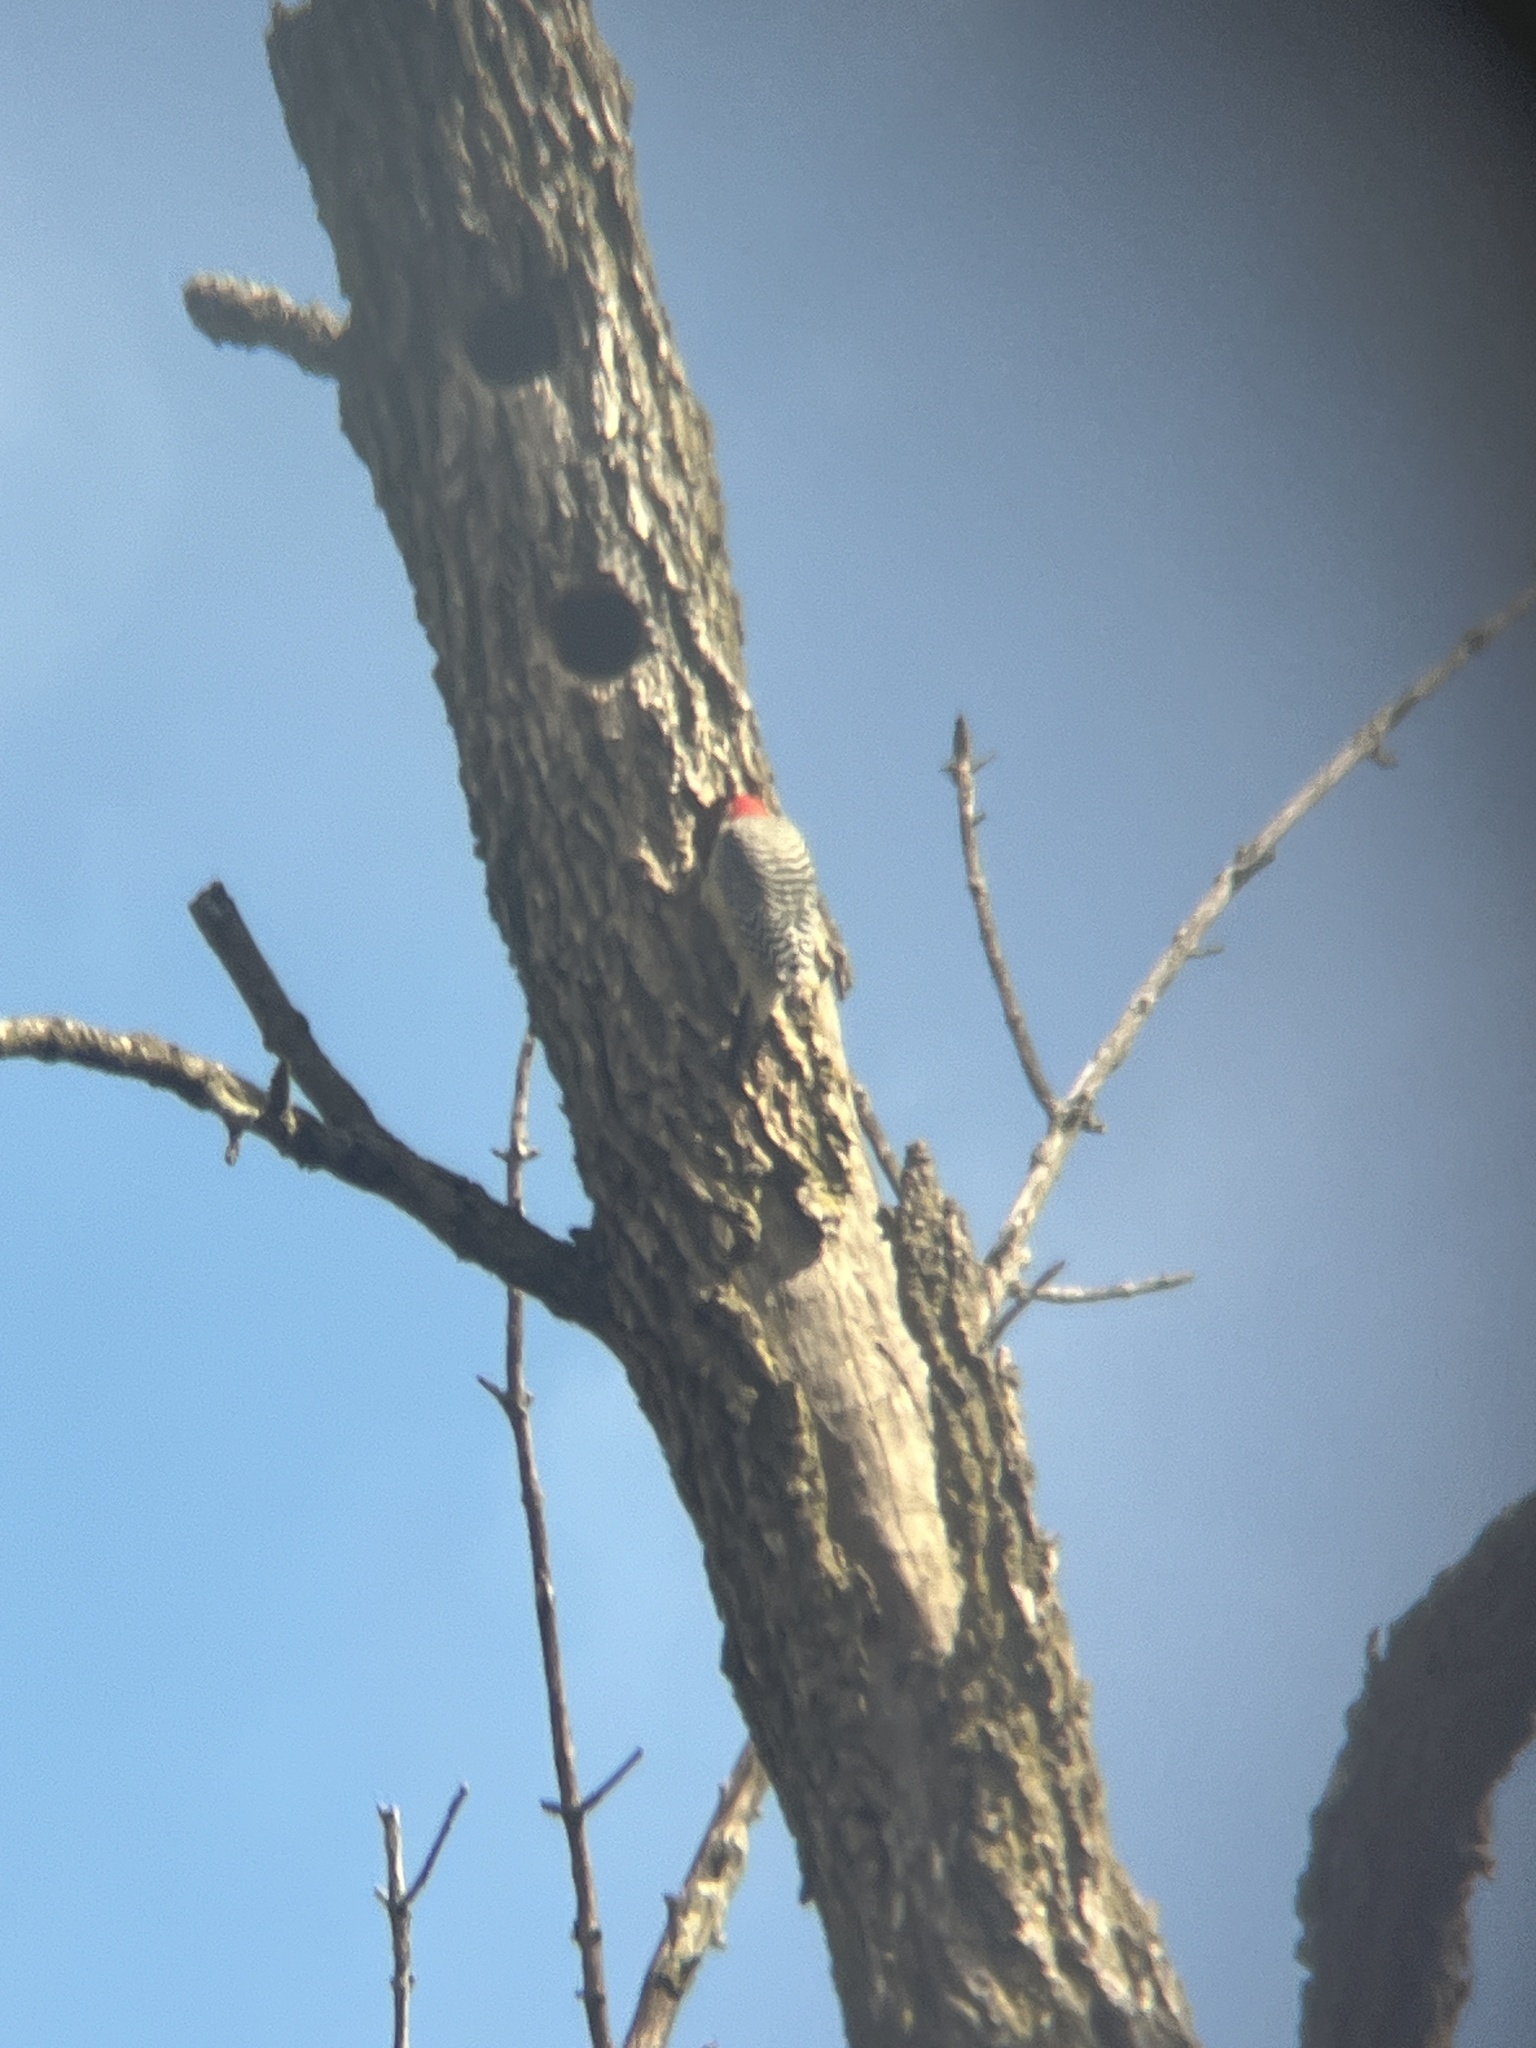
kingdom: Animalia
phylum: Chordata
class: Aves
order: Piciformes
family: Picidae
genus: Melanerpes
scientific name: Melanerpes carolinus
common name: Red-bellied woodpecker
